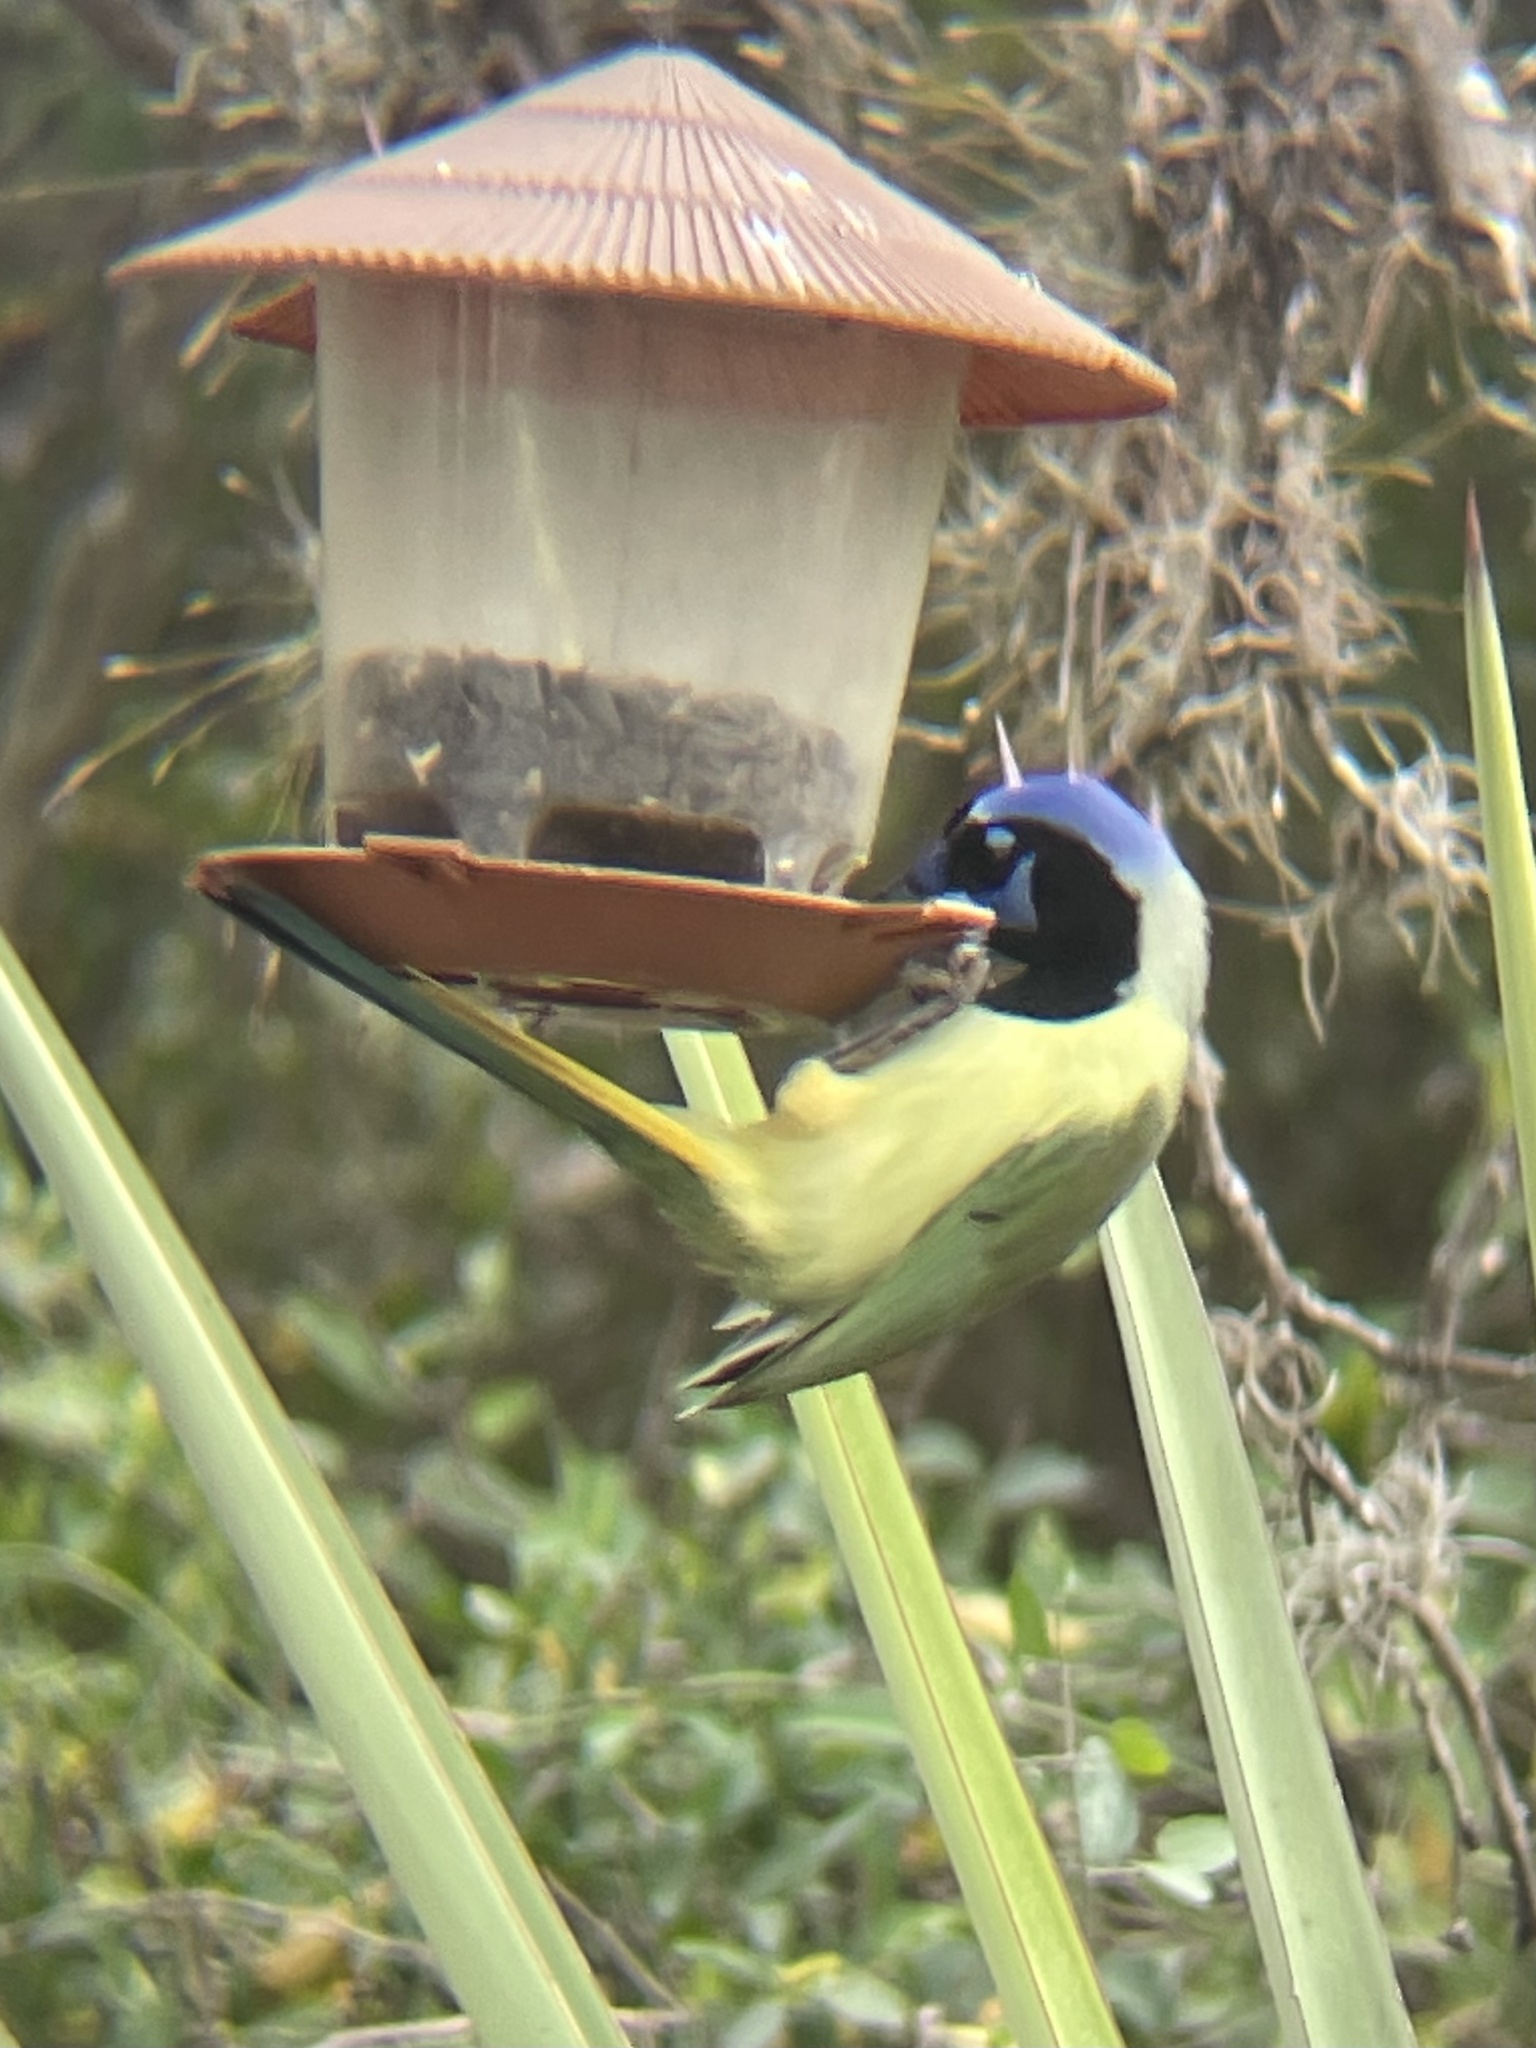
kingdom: Animalia
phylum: Chordata
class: Aves
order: Passeriformes
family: Corvidae
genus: Cyanocorax
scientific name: Cyanocorax yncas
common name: Green jay
